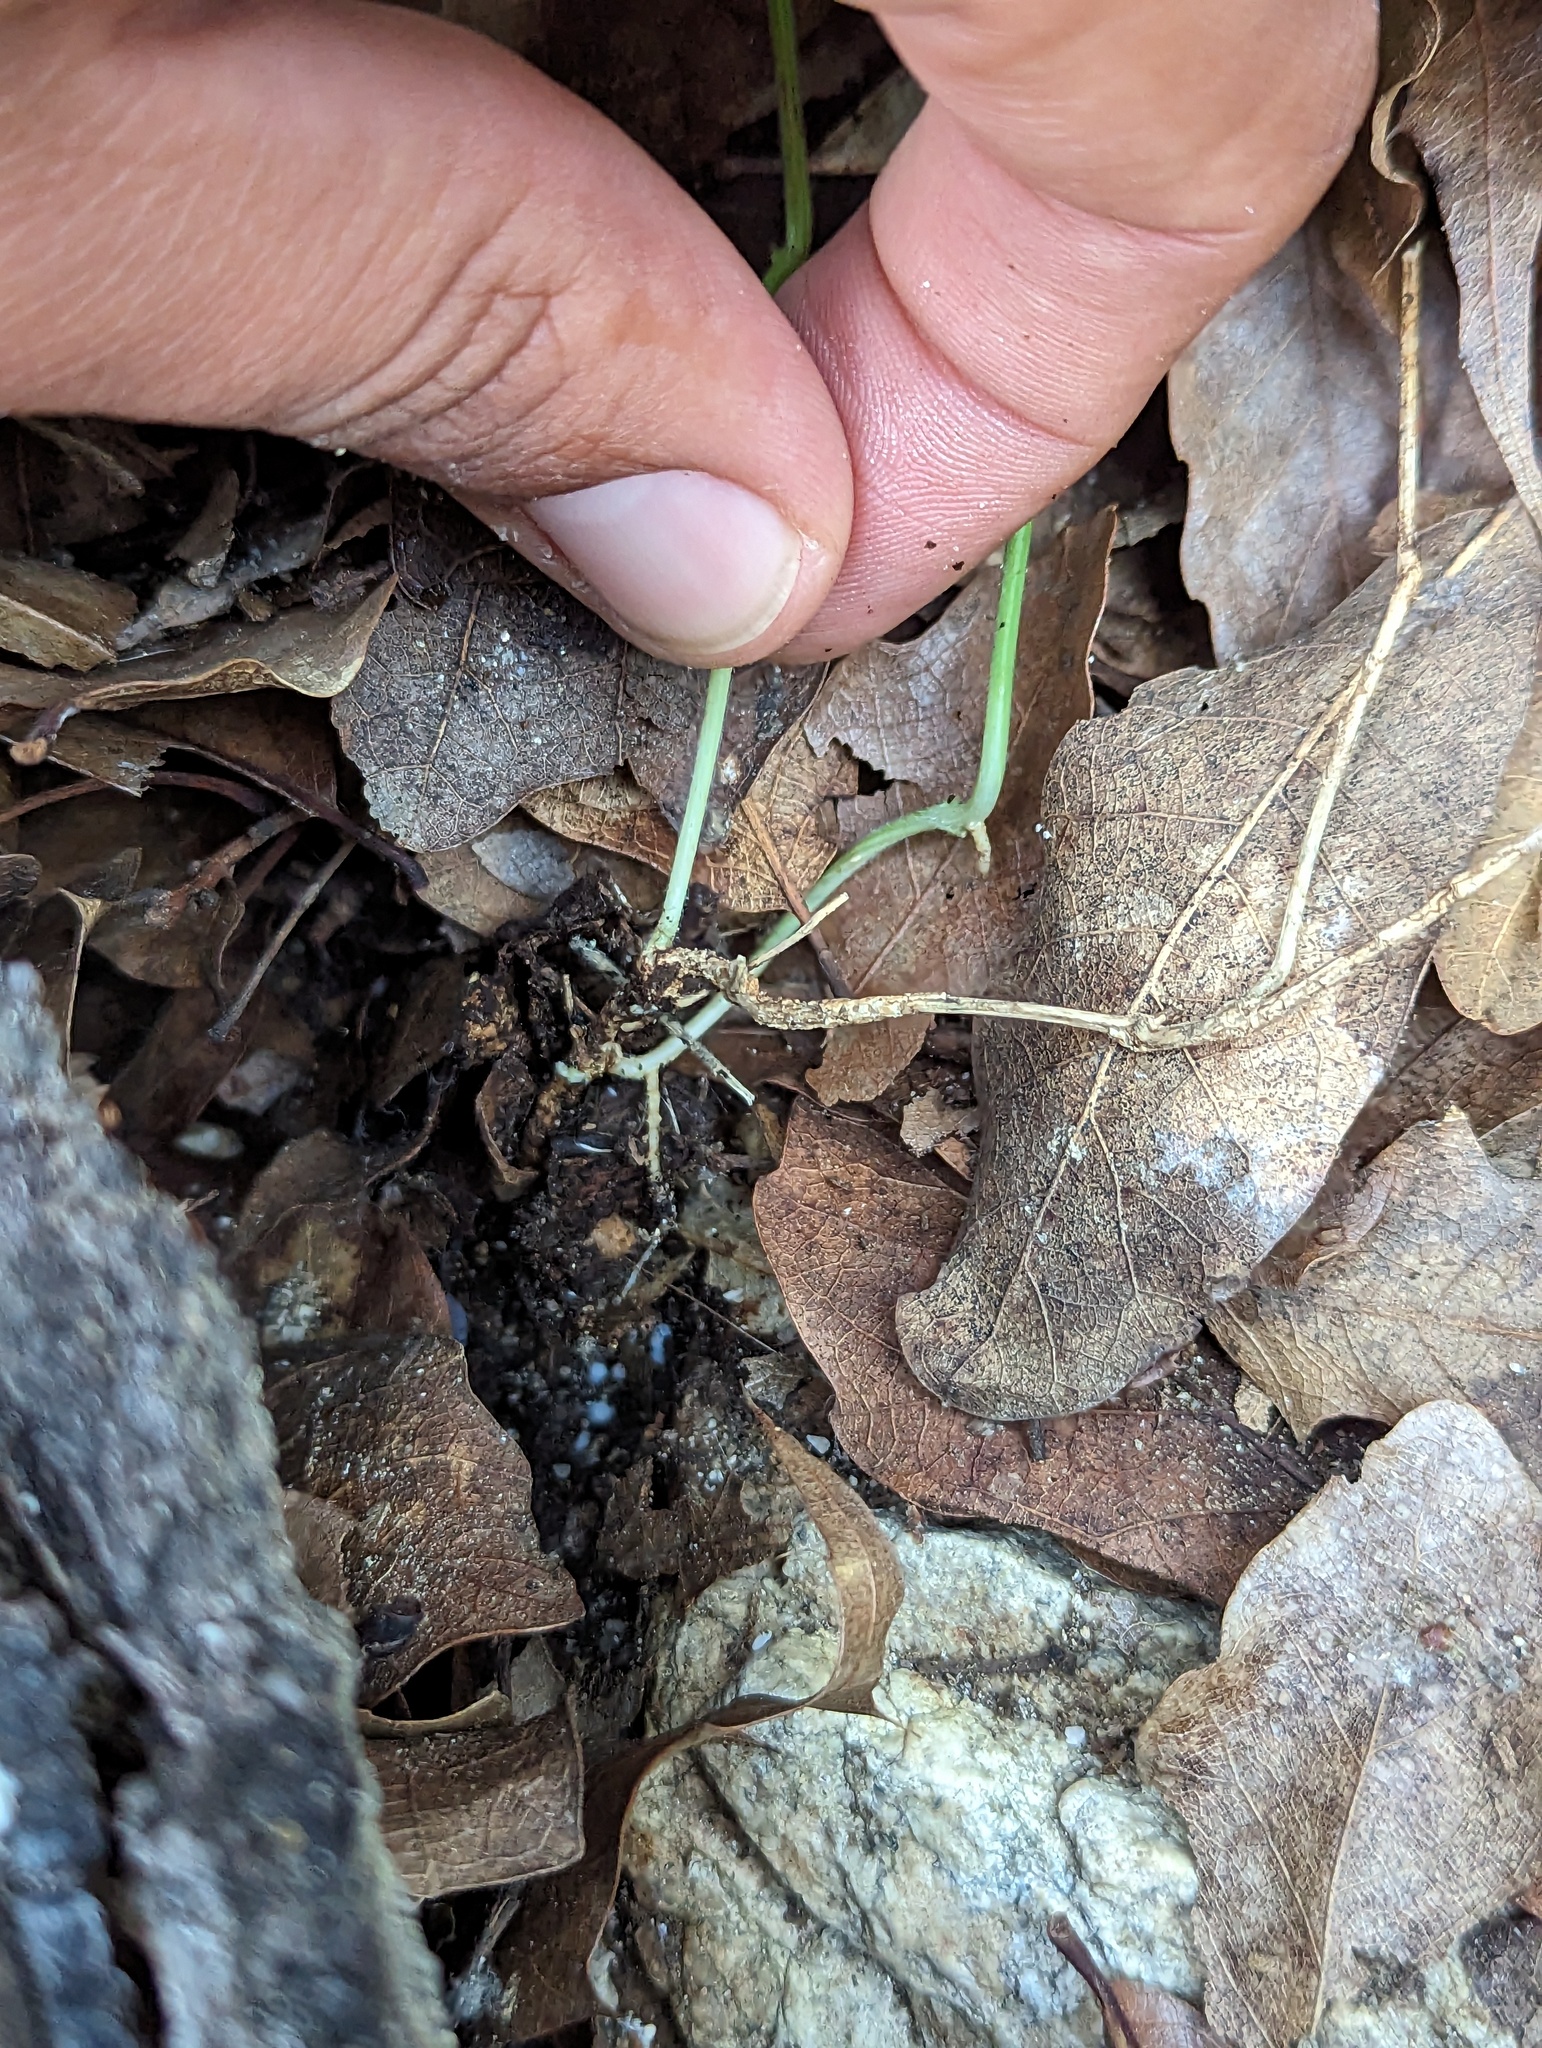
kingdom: Plantae
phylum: Tracheophyta
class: Magnoliopsida
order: Lamiales
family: Acanthaceae
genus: Dianthera
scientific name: Dianthera incerta
